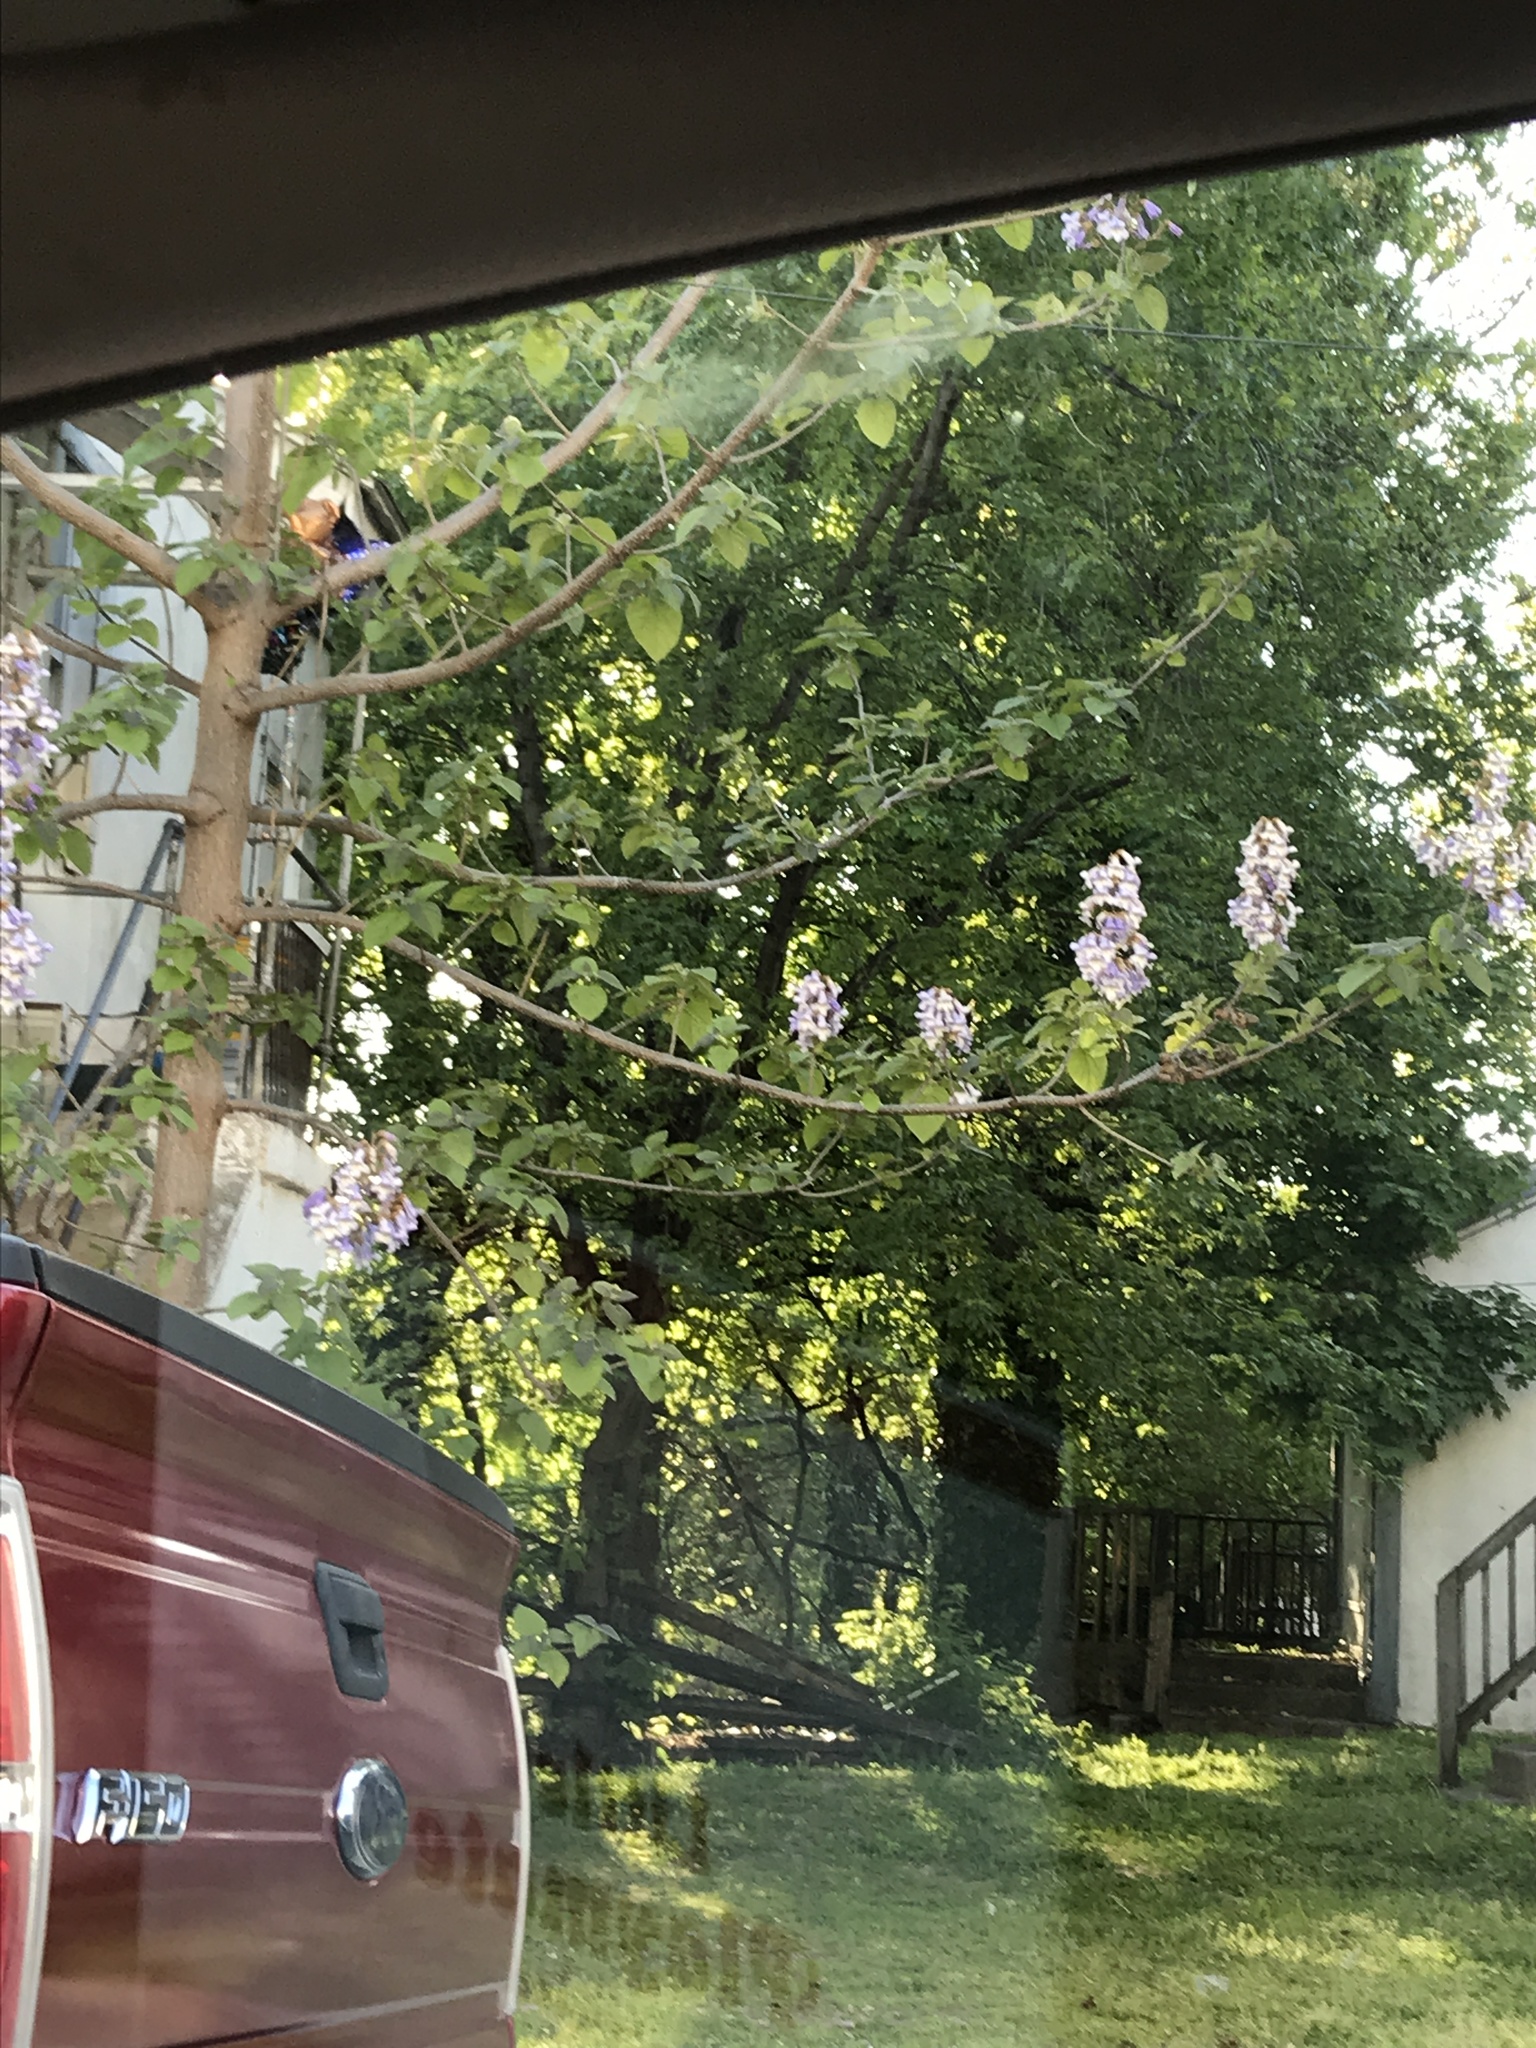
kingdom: Plantae
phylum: Tracheophyta
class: Magnoliopsida
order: Lamiales
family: Paulowniaceae
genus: Paulownia
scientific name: Paulownia tomentosa
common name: Foxglove-tree
